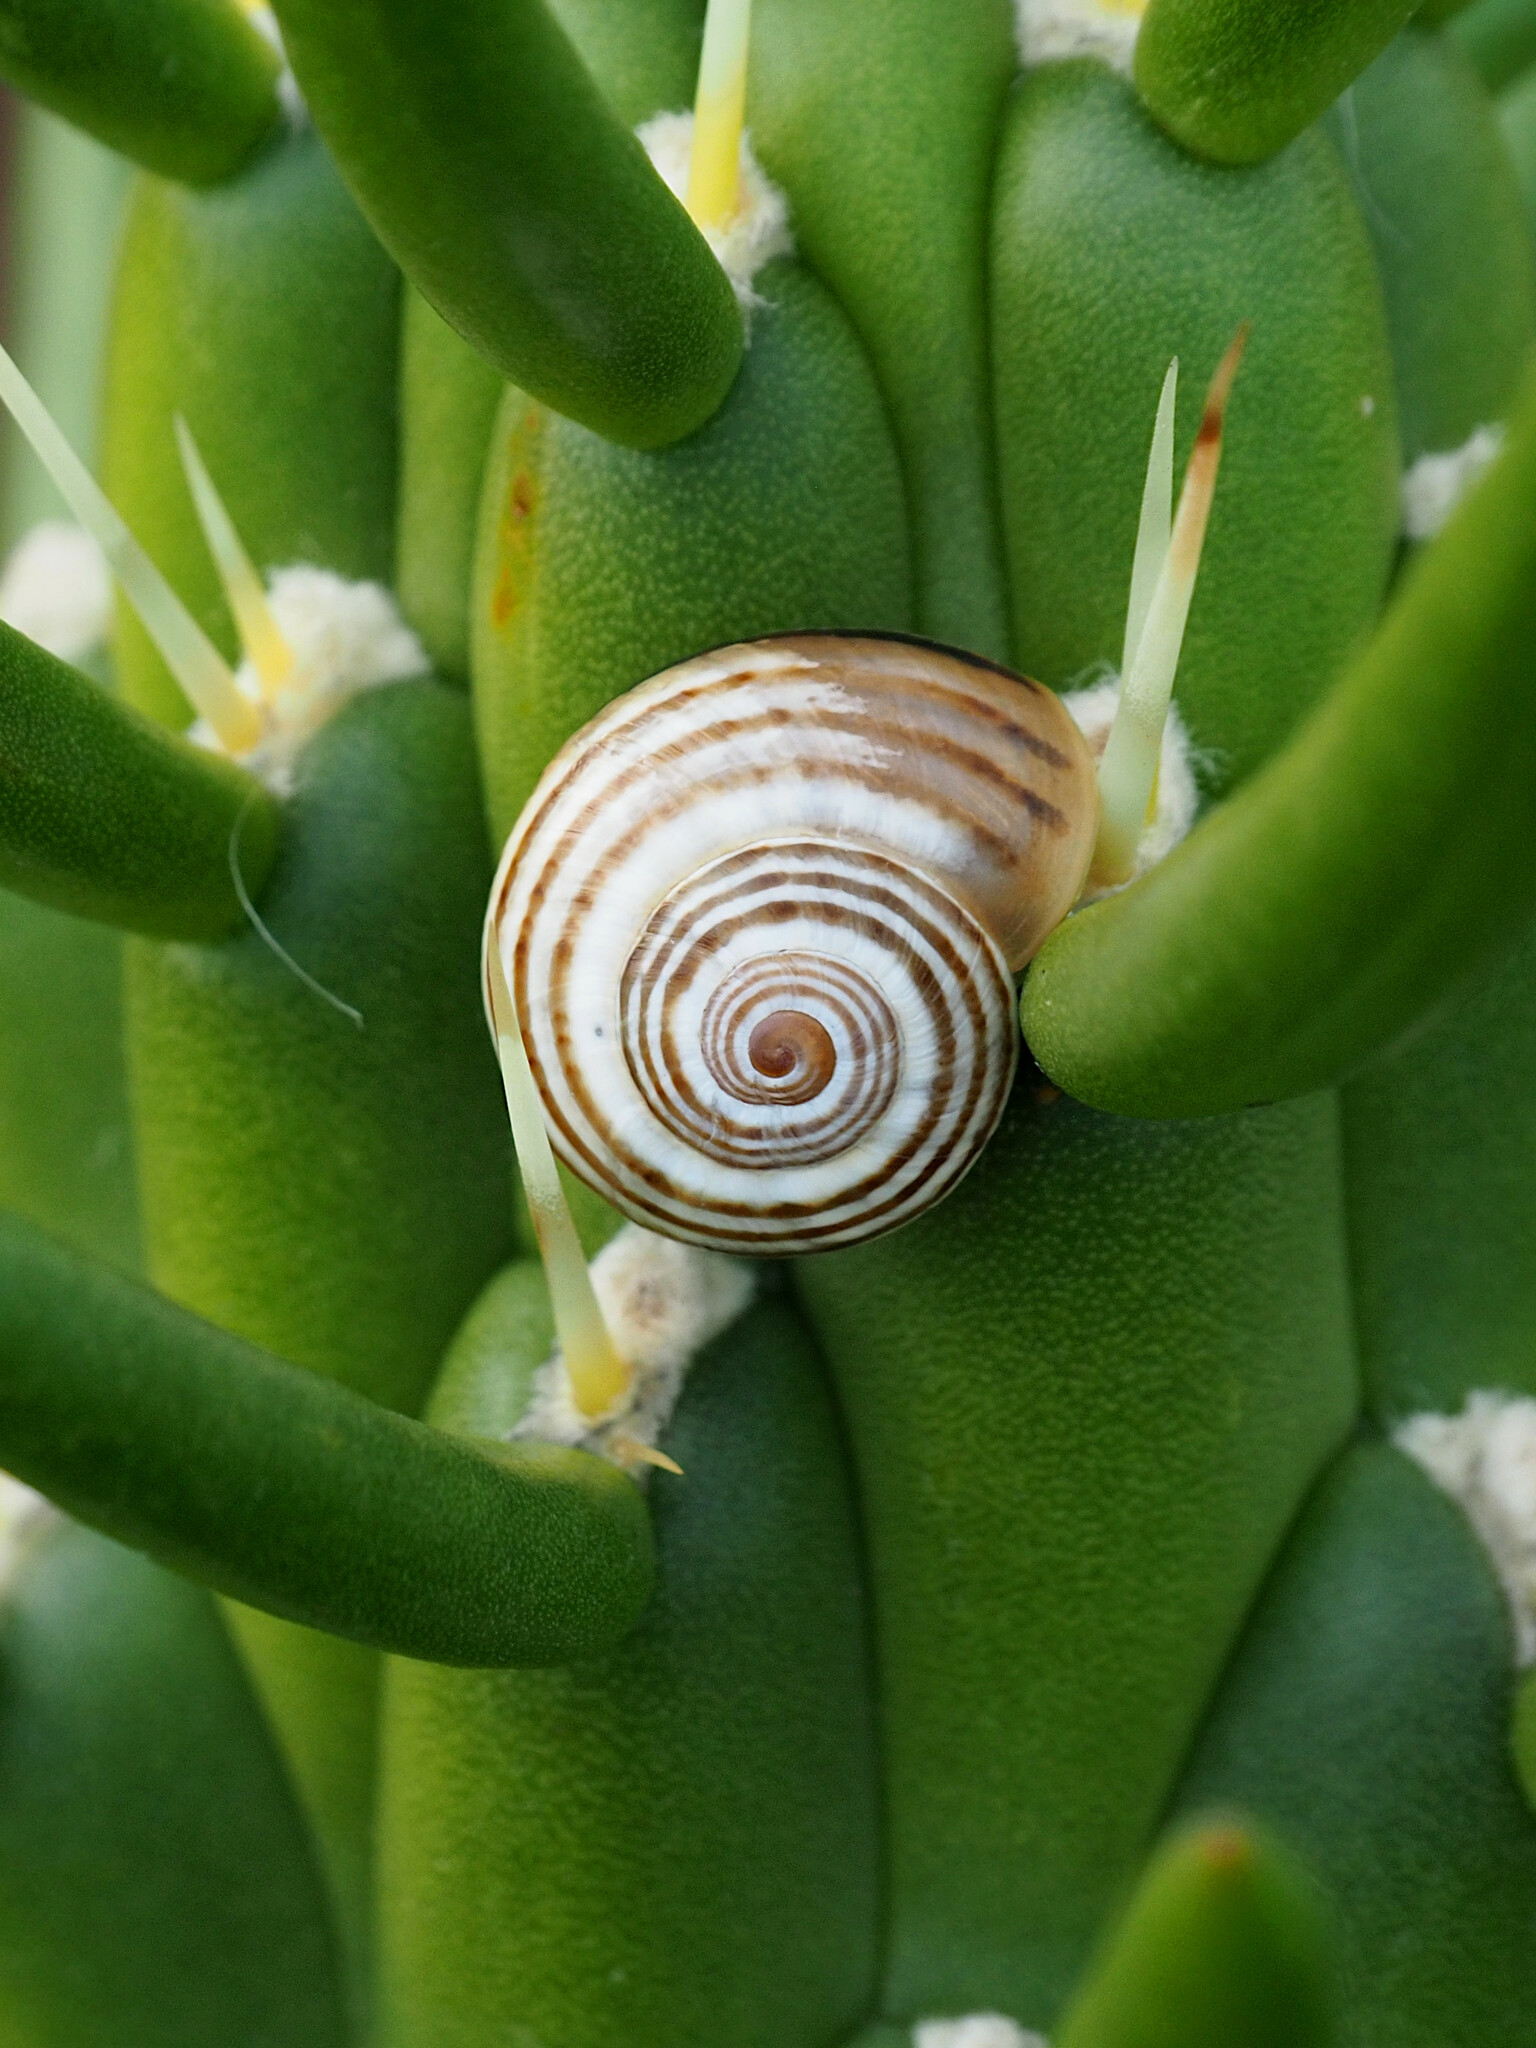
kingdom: Animalia
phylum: Mollusca
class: Gastropoda
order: Stylommatophora
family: Helicidae
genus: Pseudotachea
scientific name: Pseudotachea splendida
